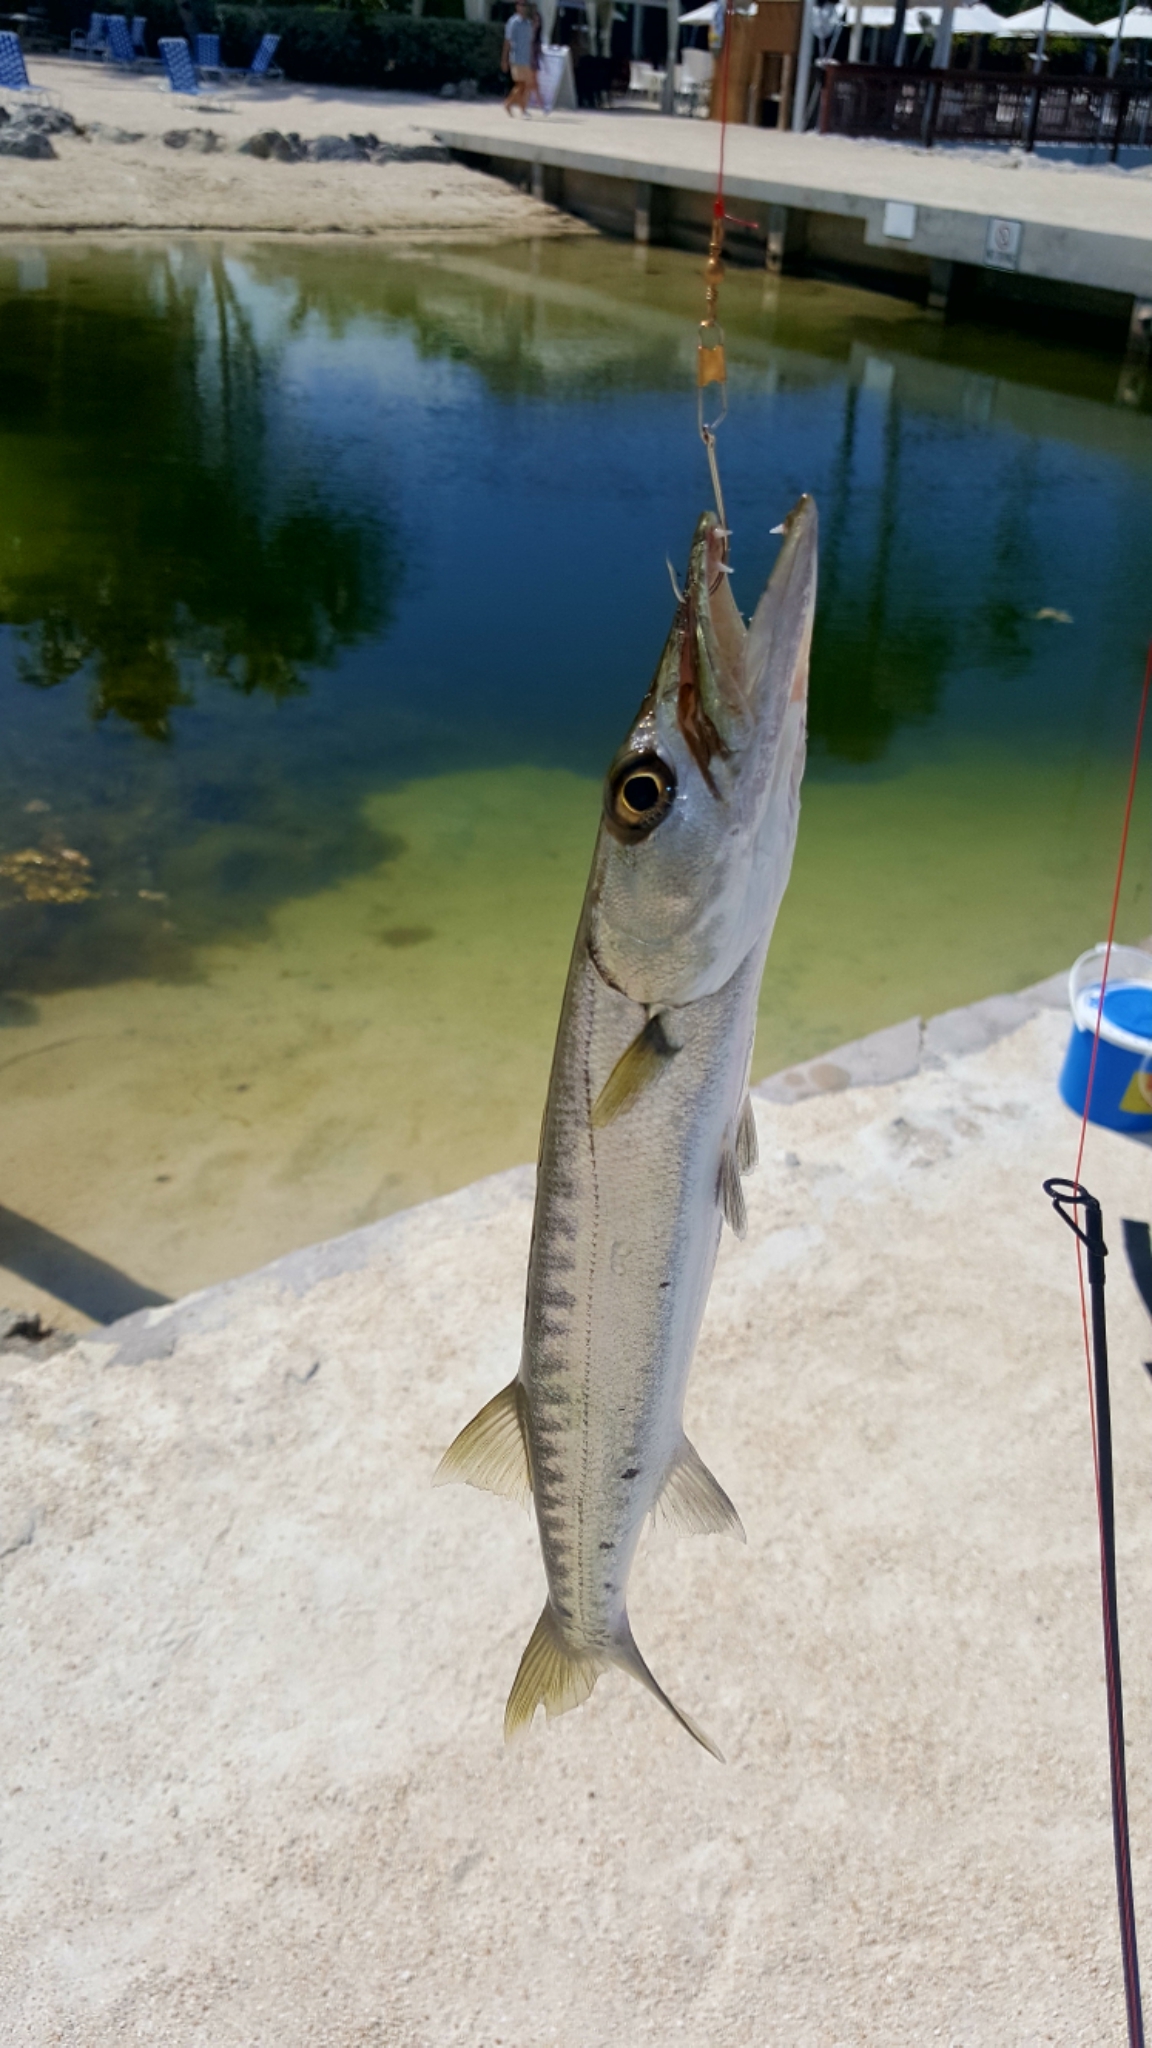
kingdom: Animalia
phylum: Chordata
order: Perciformes
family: Sphyraenidae
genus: Sphyraena
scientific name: Sphyraena barracuda
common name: Great barracuda
